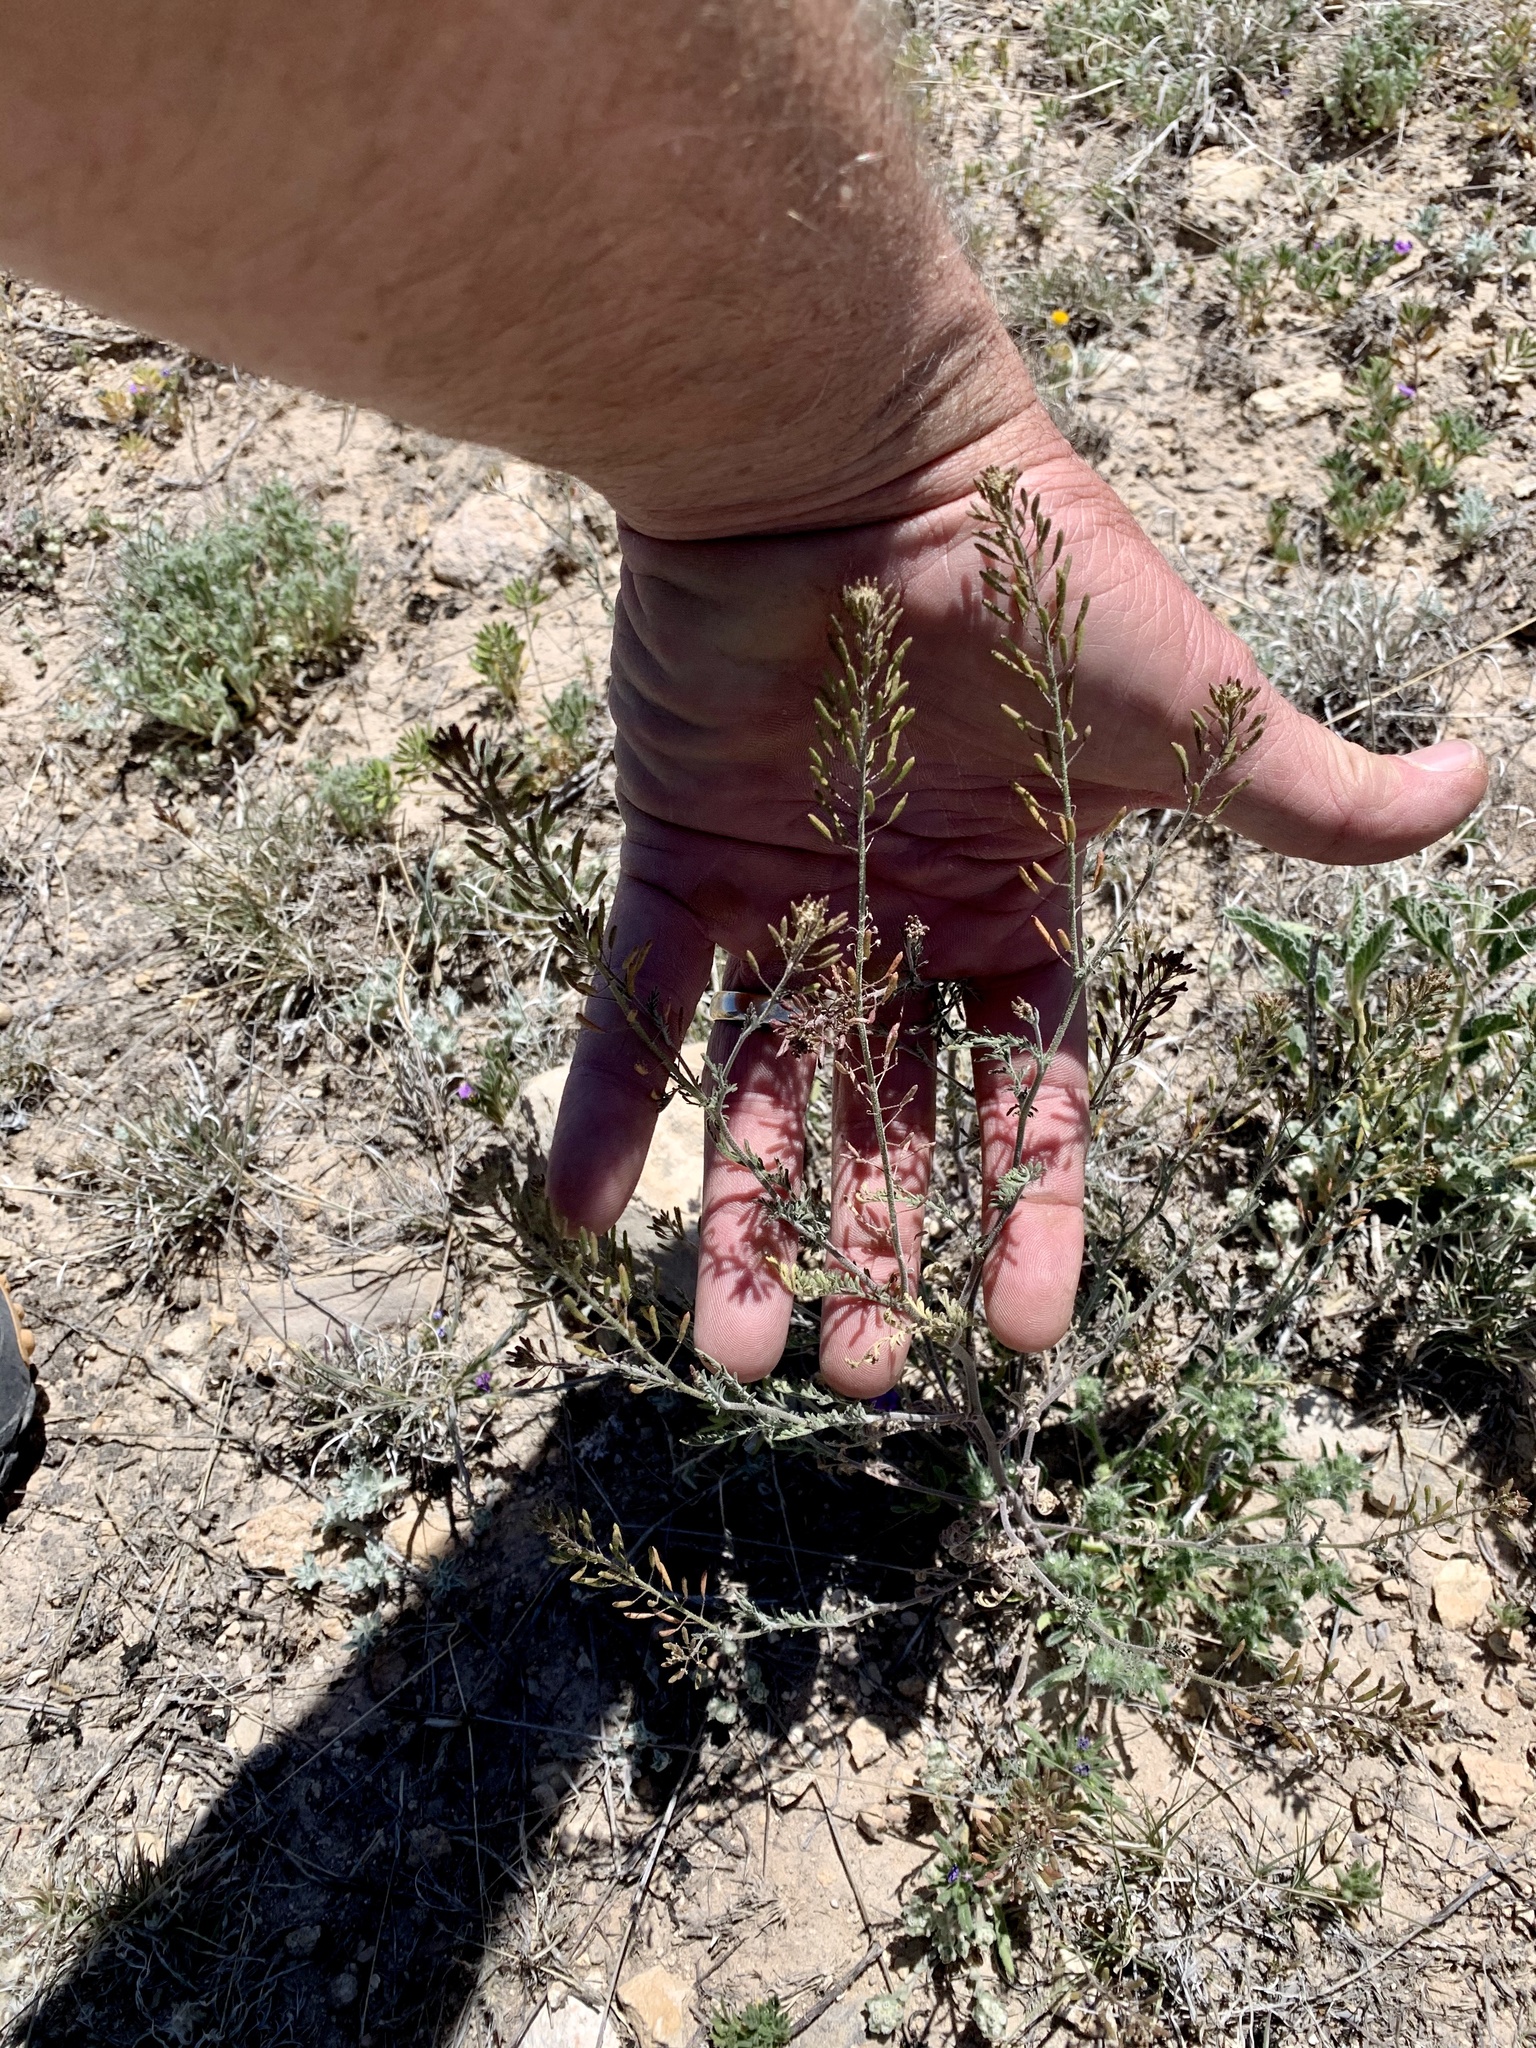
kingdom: Plantae
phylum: Tracheophyta
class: Magnoliopsida
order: Brassicales
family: Brassicaceae
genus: Descurainia
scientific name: Descurainia pinnata
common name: Western tansy mustard
